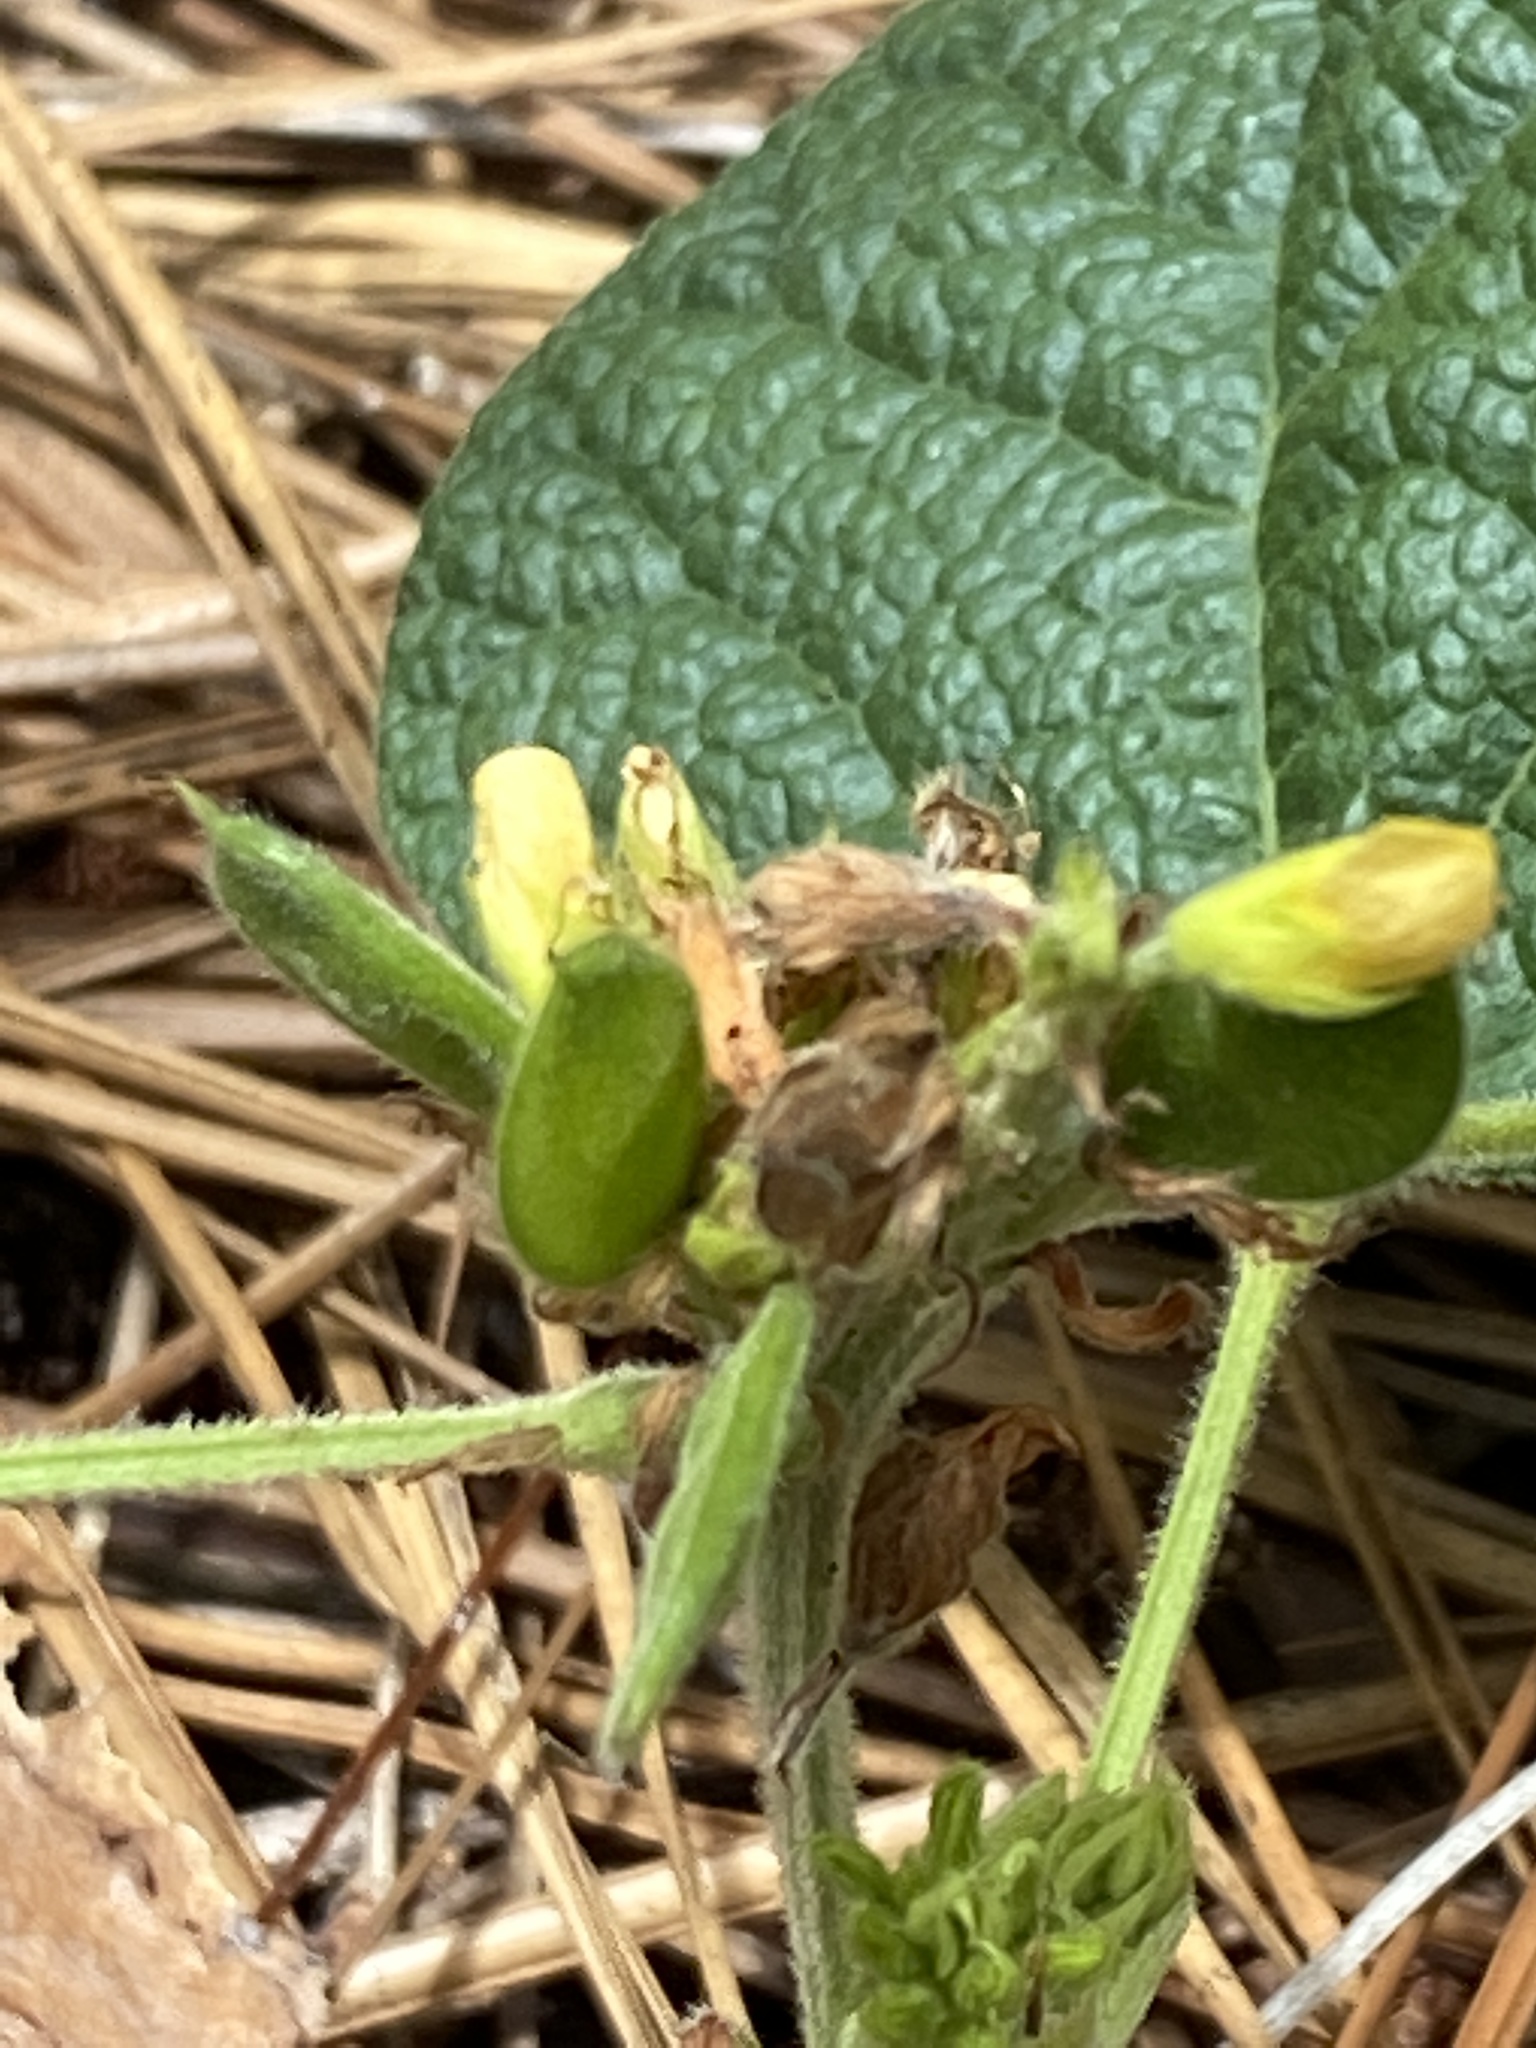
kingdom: Plantae
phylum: Tracheophyta
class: Magnoliopsida
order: Fabales
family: Fabaceae
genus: Rhynchosia
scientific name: Rhynchosia reniformis
